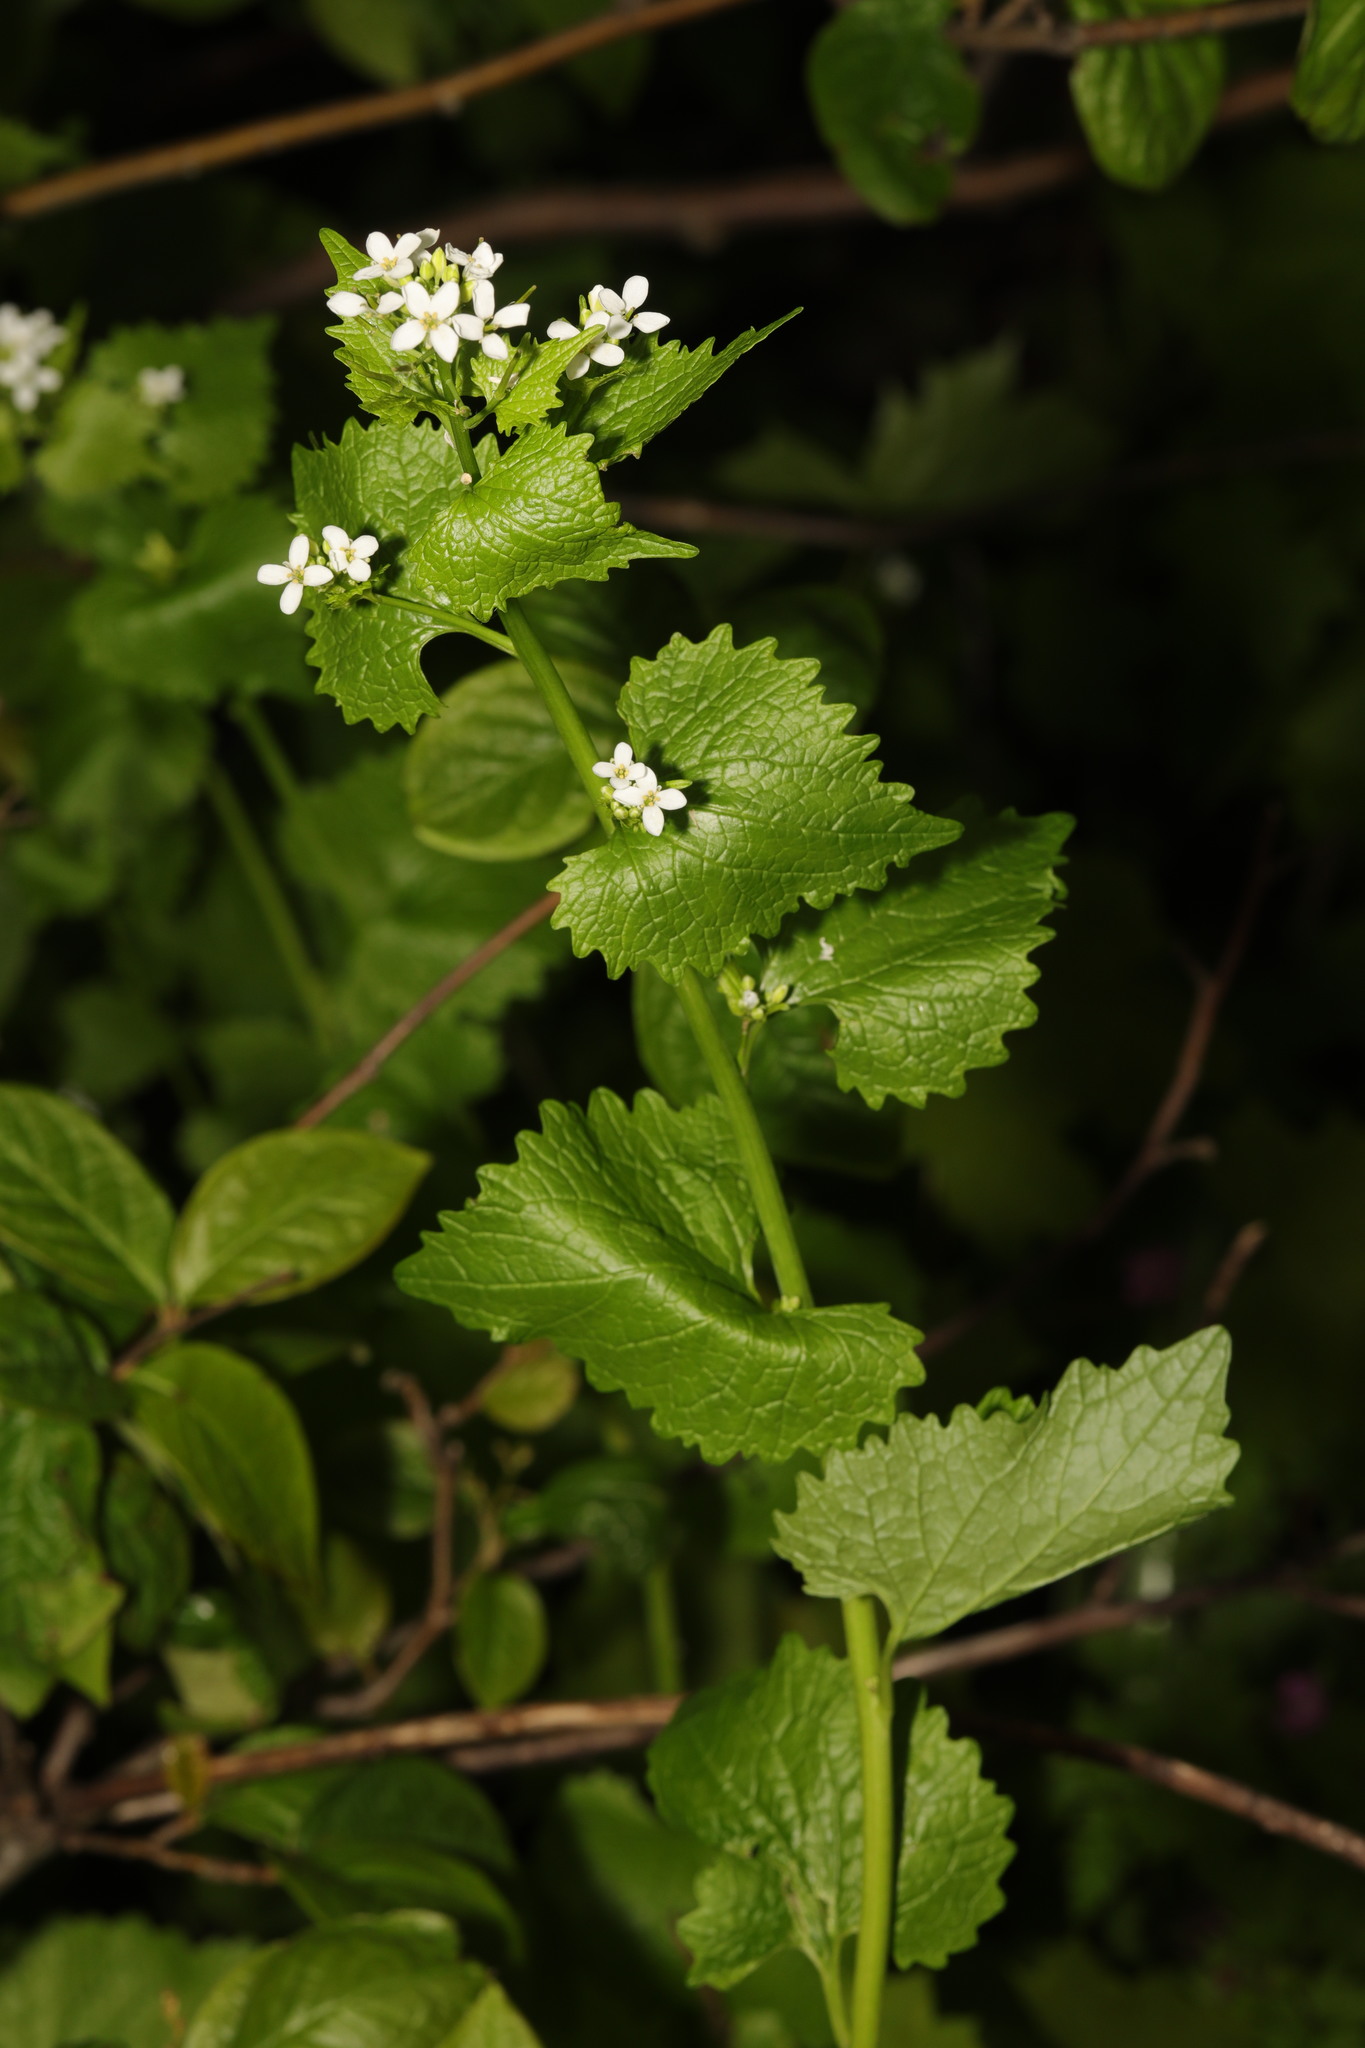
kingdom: Plantae
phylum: Tracheophyta
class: Magnoliopsida
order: Brassicales
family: Brassicaceae
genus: Alliaria
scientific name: Alliaria petiolata
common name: Garlic mustard
